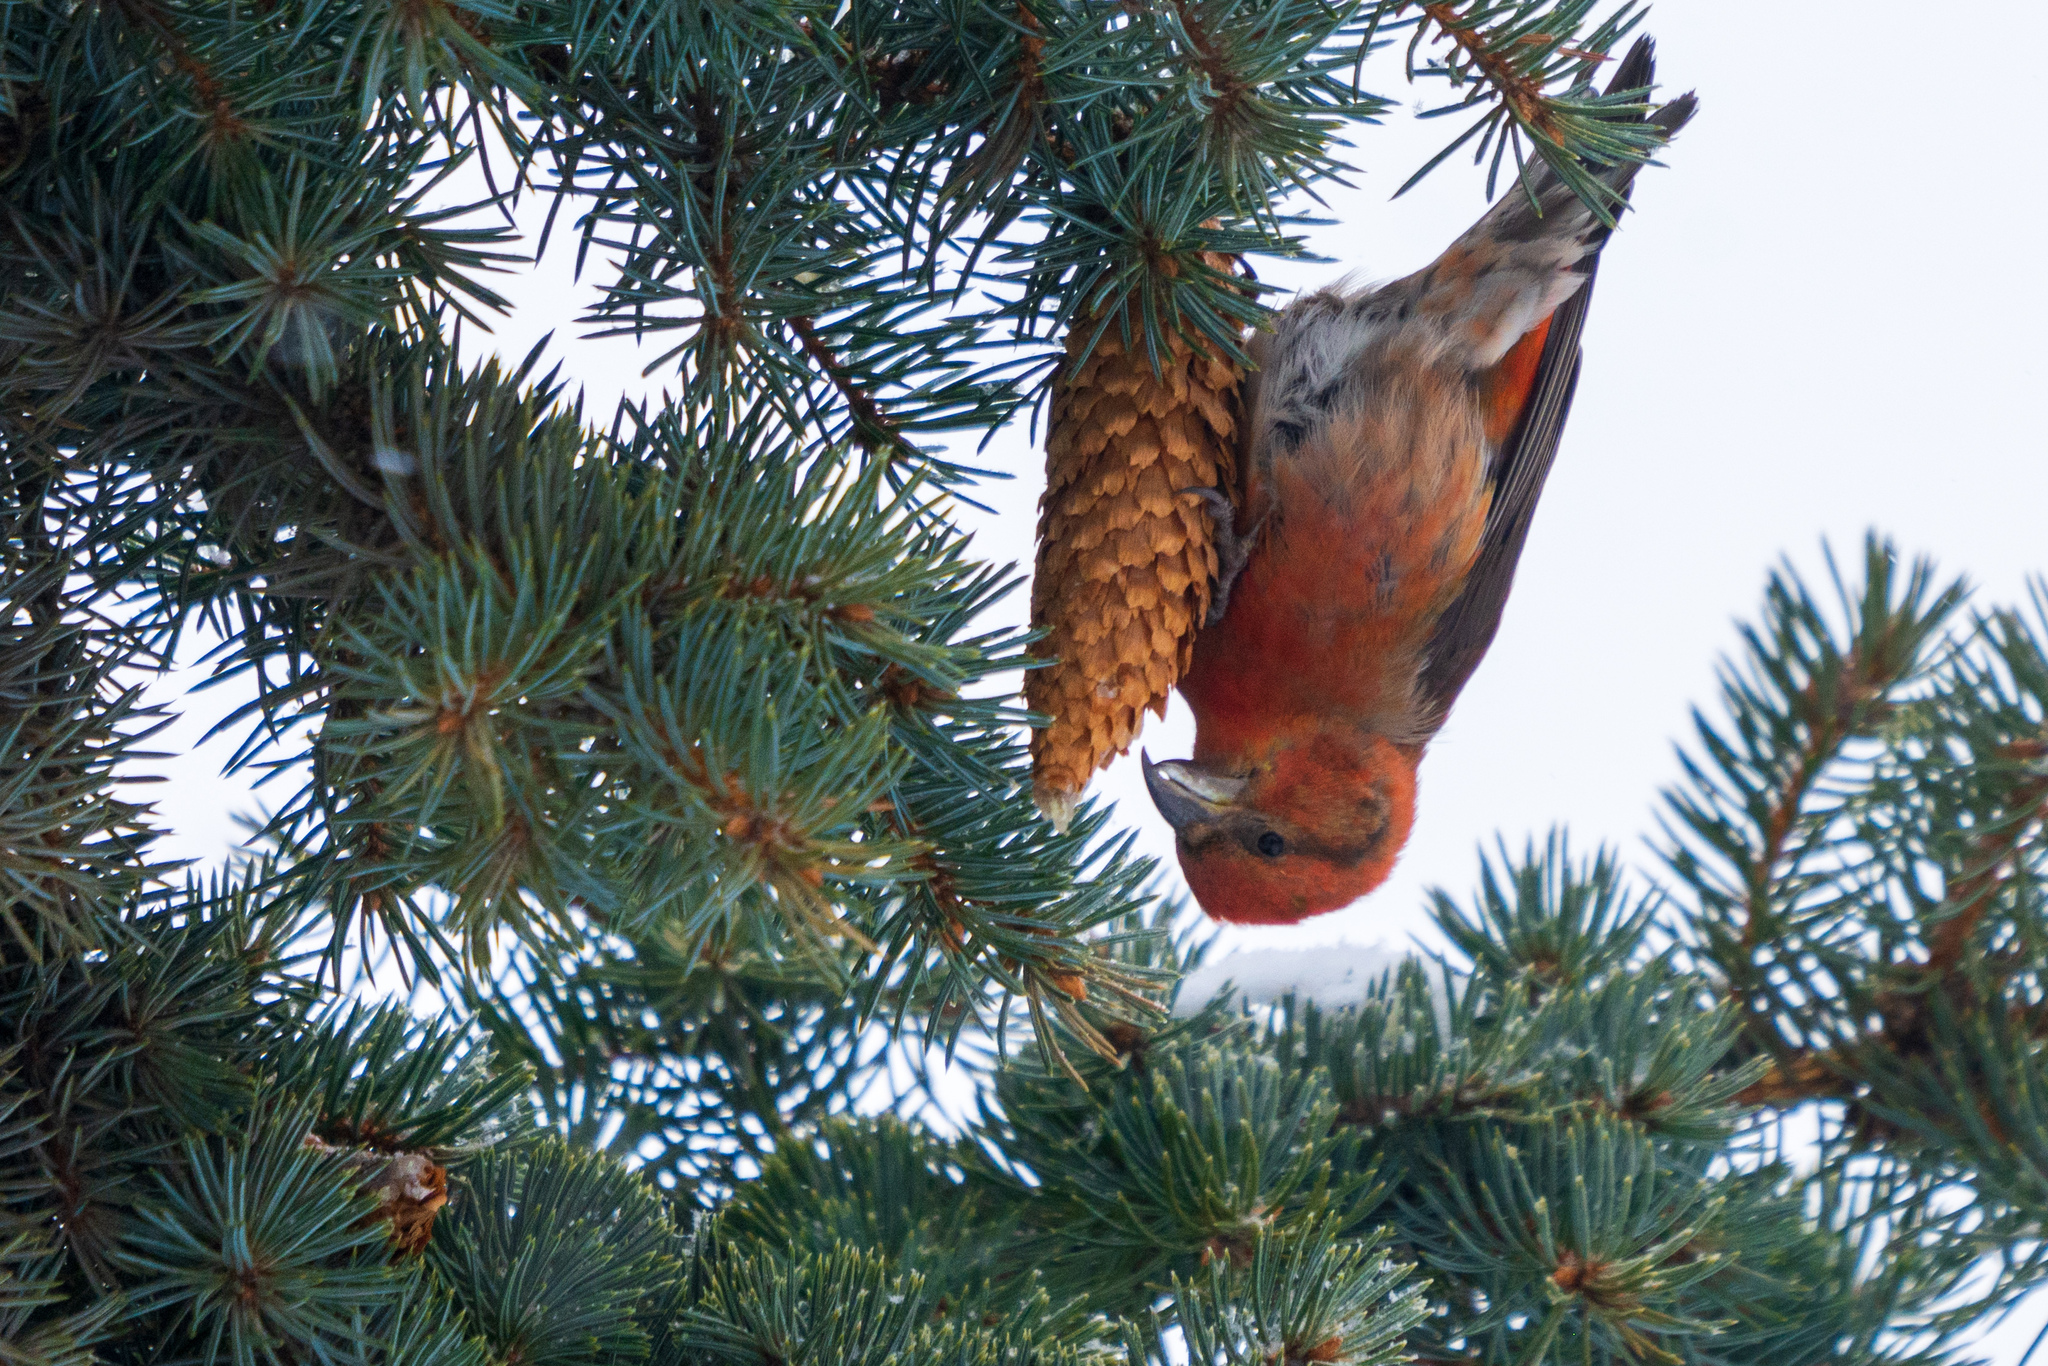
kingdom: Animalia
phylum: Chordata
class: Aves
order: Passeriformes
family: Fringillidae
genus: Loxia
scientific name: Loxia curvirostra
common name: Red crossbill
